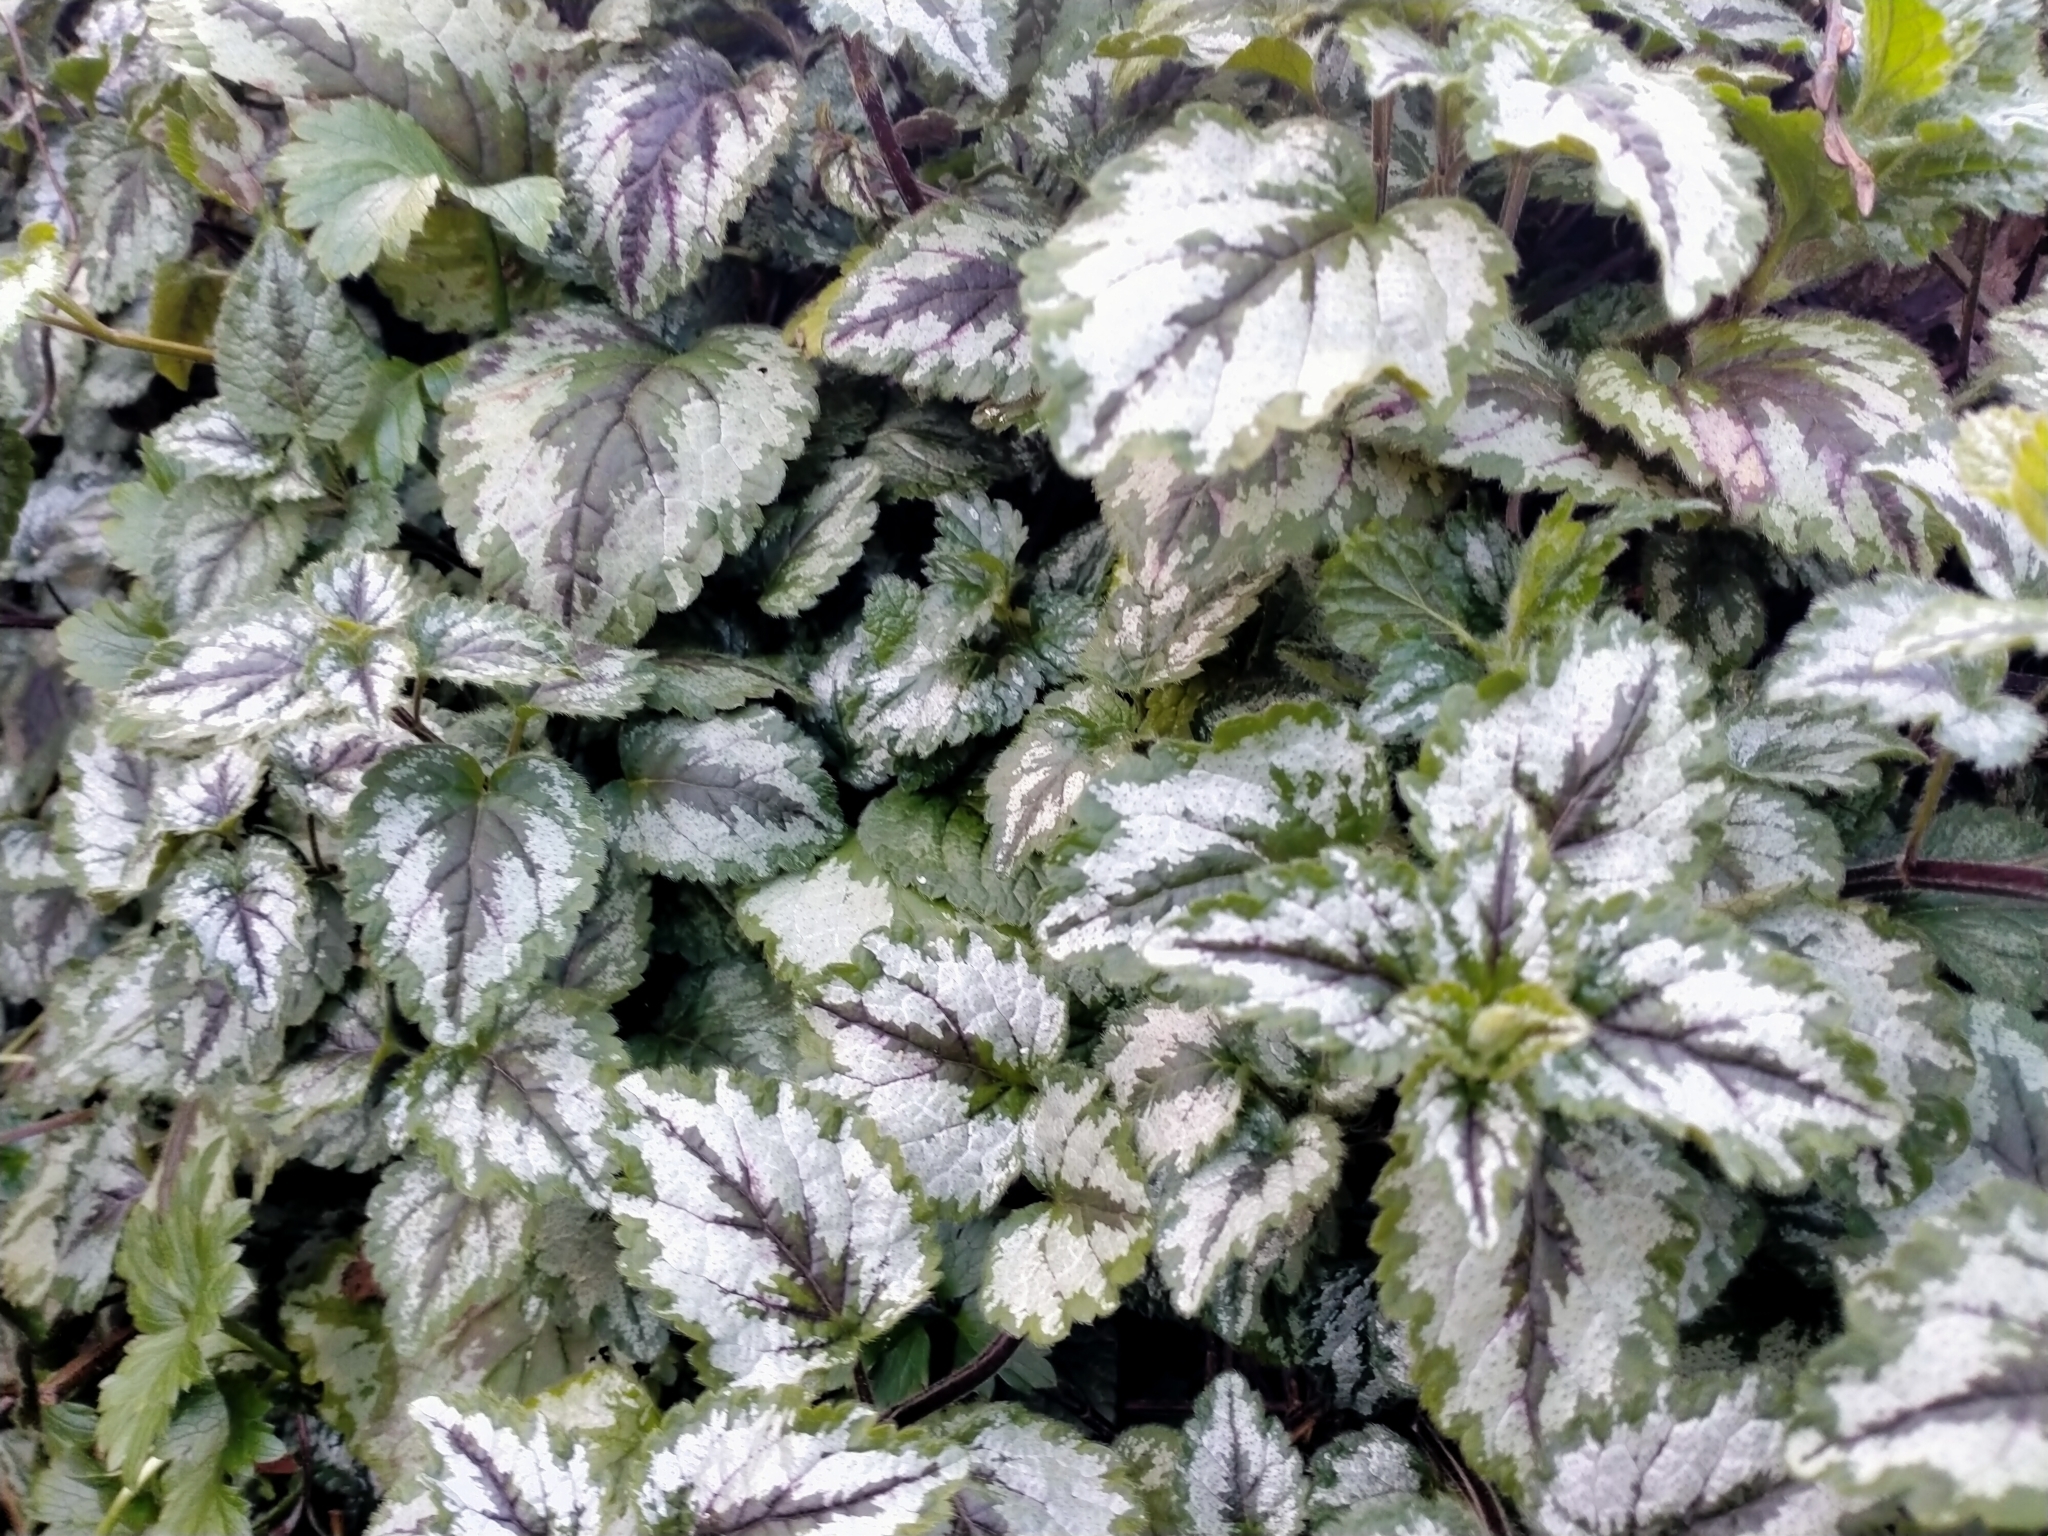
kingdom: Plantae
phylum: Tracheophyta
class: Magnoliopsida
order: Lamiales
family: Lamiaceae
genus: Lamium
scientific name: Lamium galeobdolon
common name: Yellow archangel
